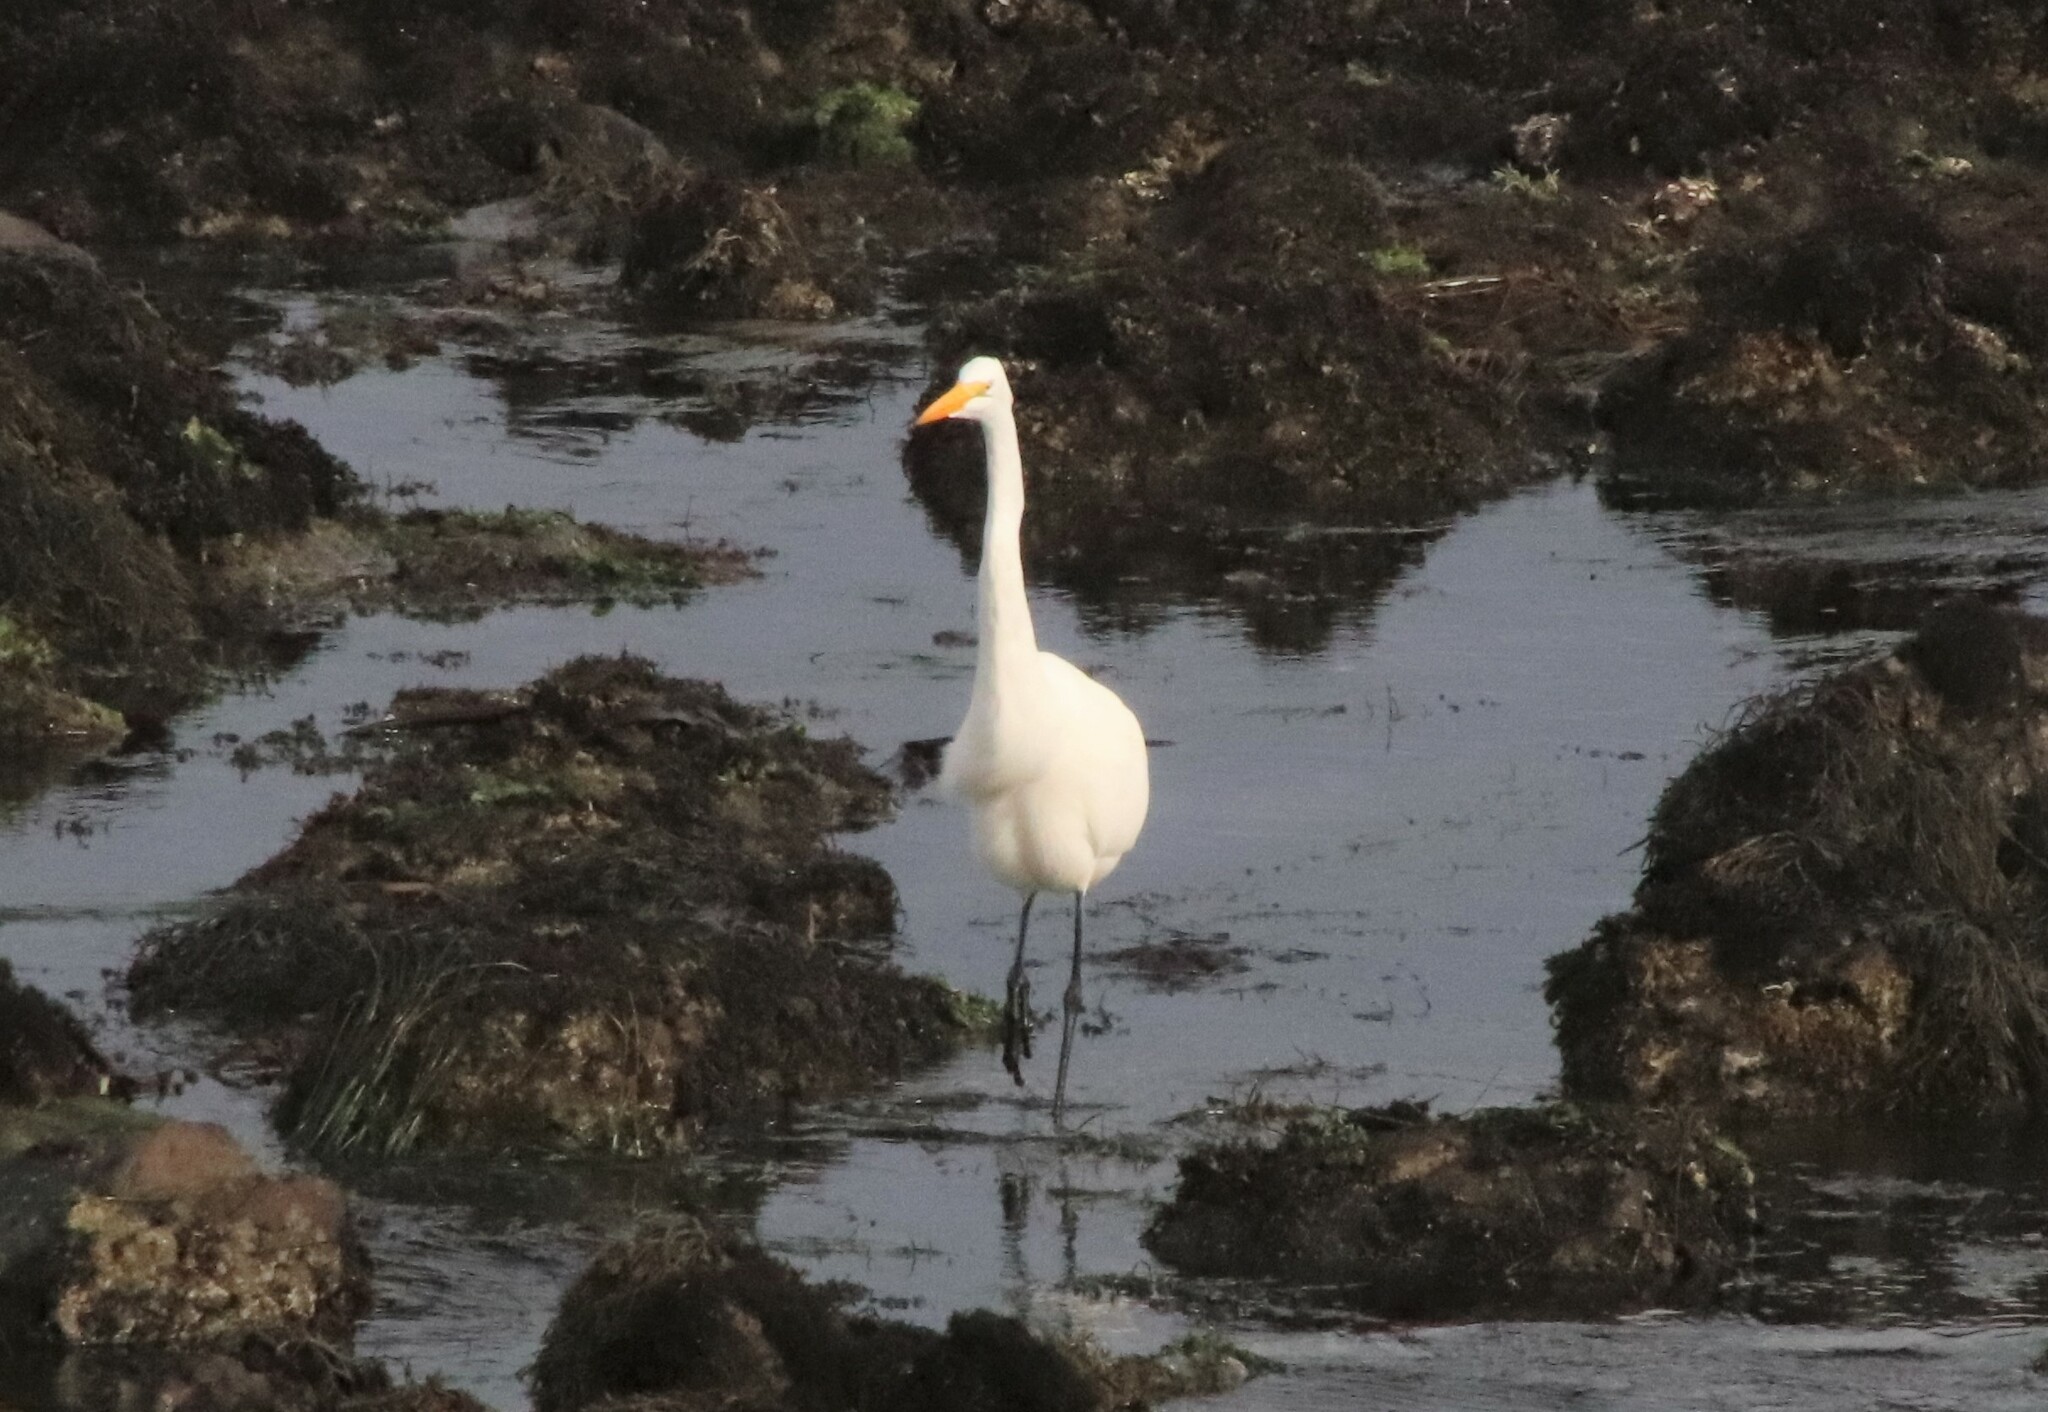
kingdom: Animalia
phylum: Chordata
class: Aves
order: Pelecaniformes
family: Ardeidae
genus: Ardea
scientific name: Ardea alba
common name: Great egret
